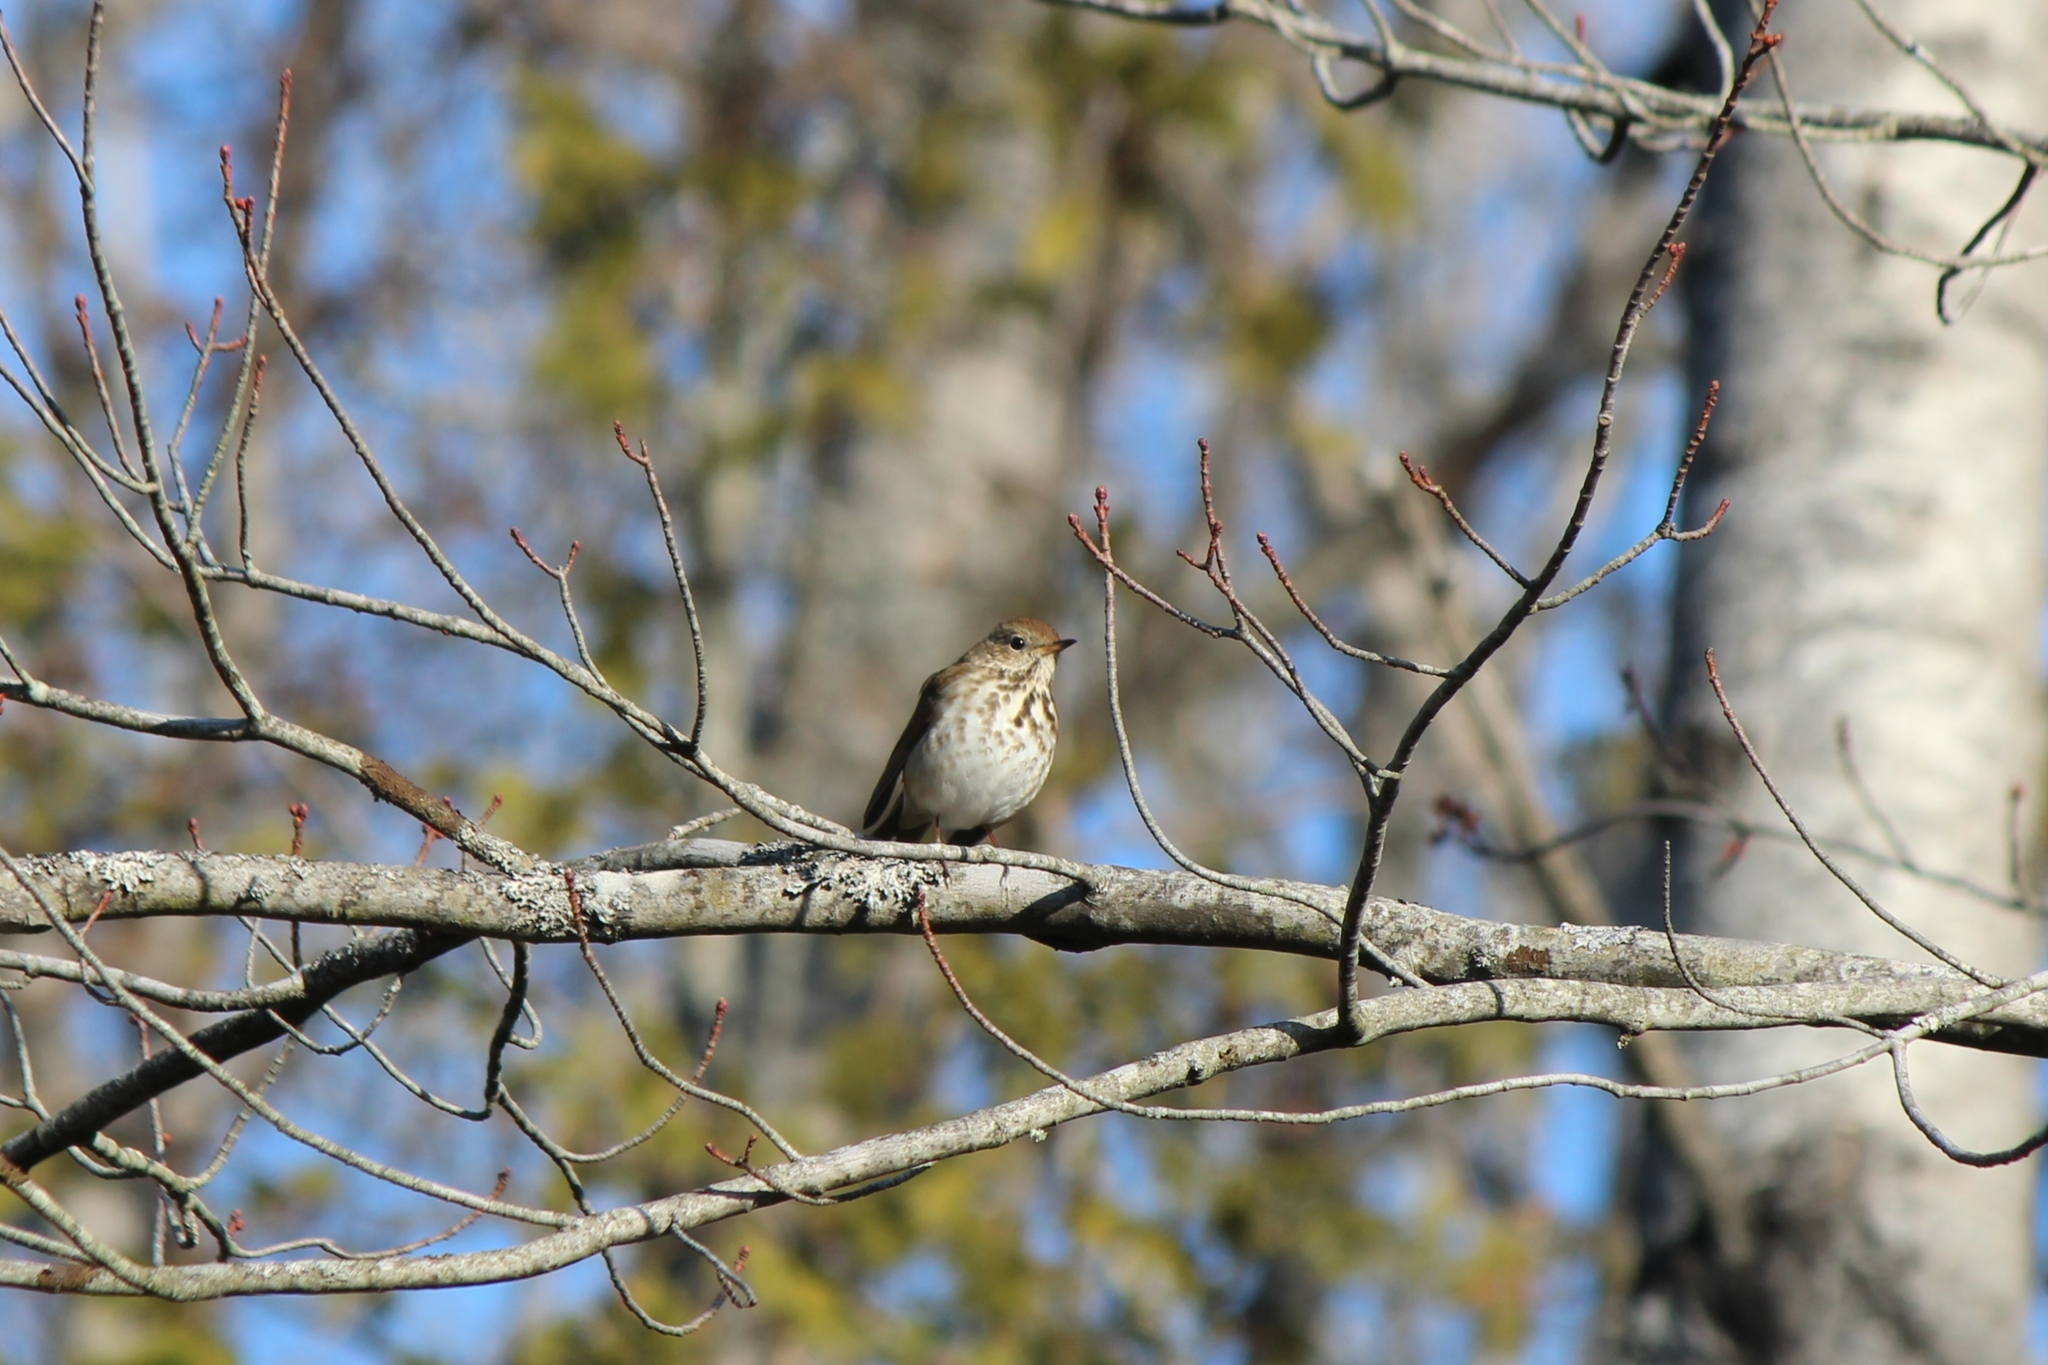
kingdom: Animalia
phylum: Chordata
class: Aves
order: Passeriformes
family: Turdidae
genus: Catharus
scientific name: Catharus guttatus
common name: Hermit thrush
